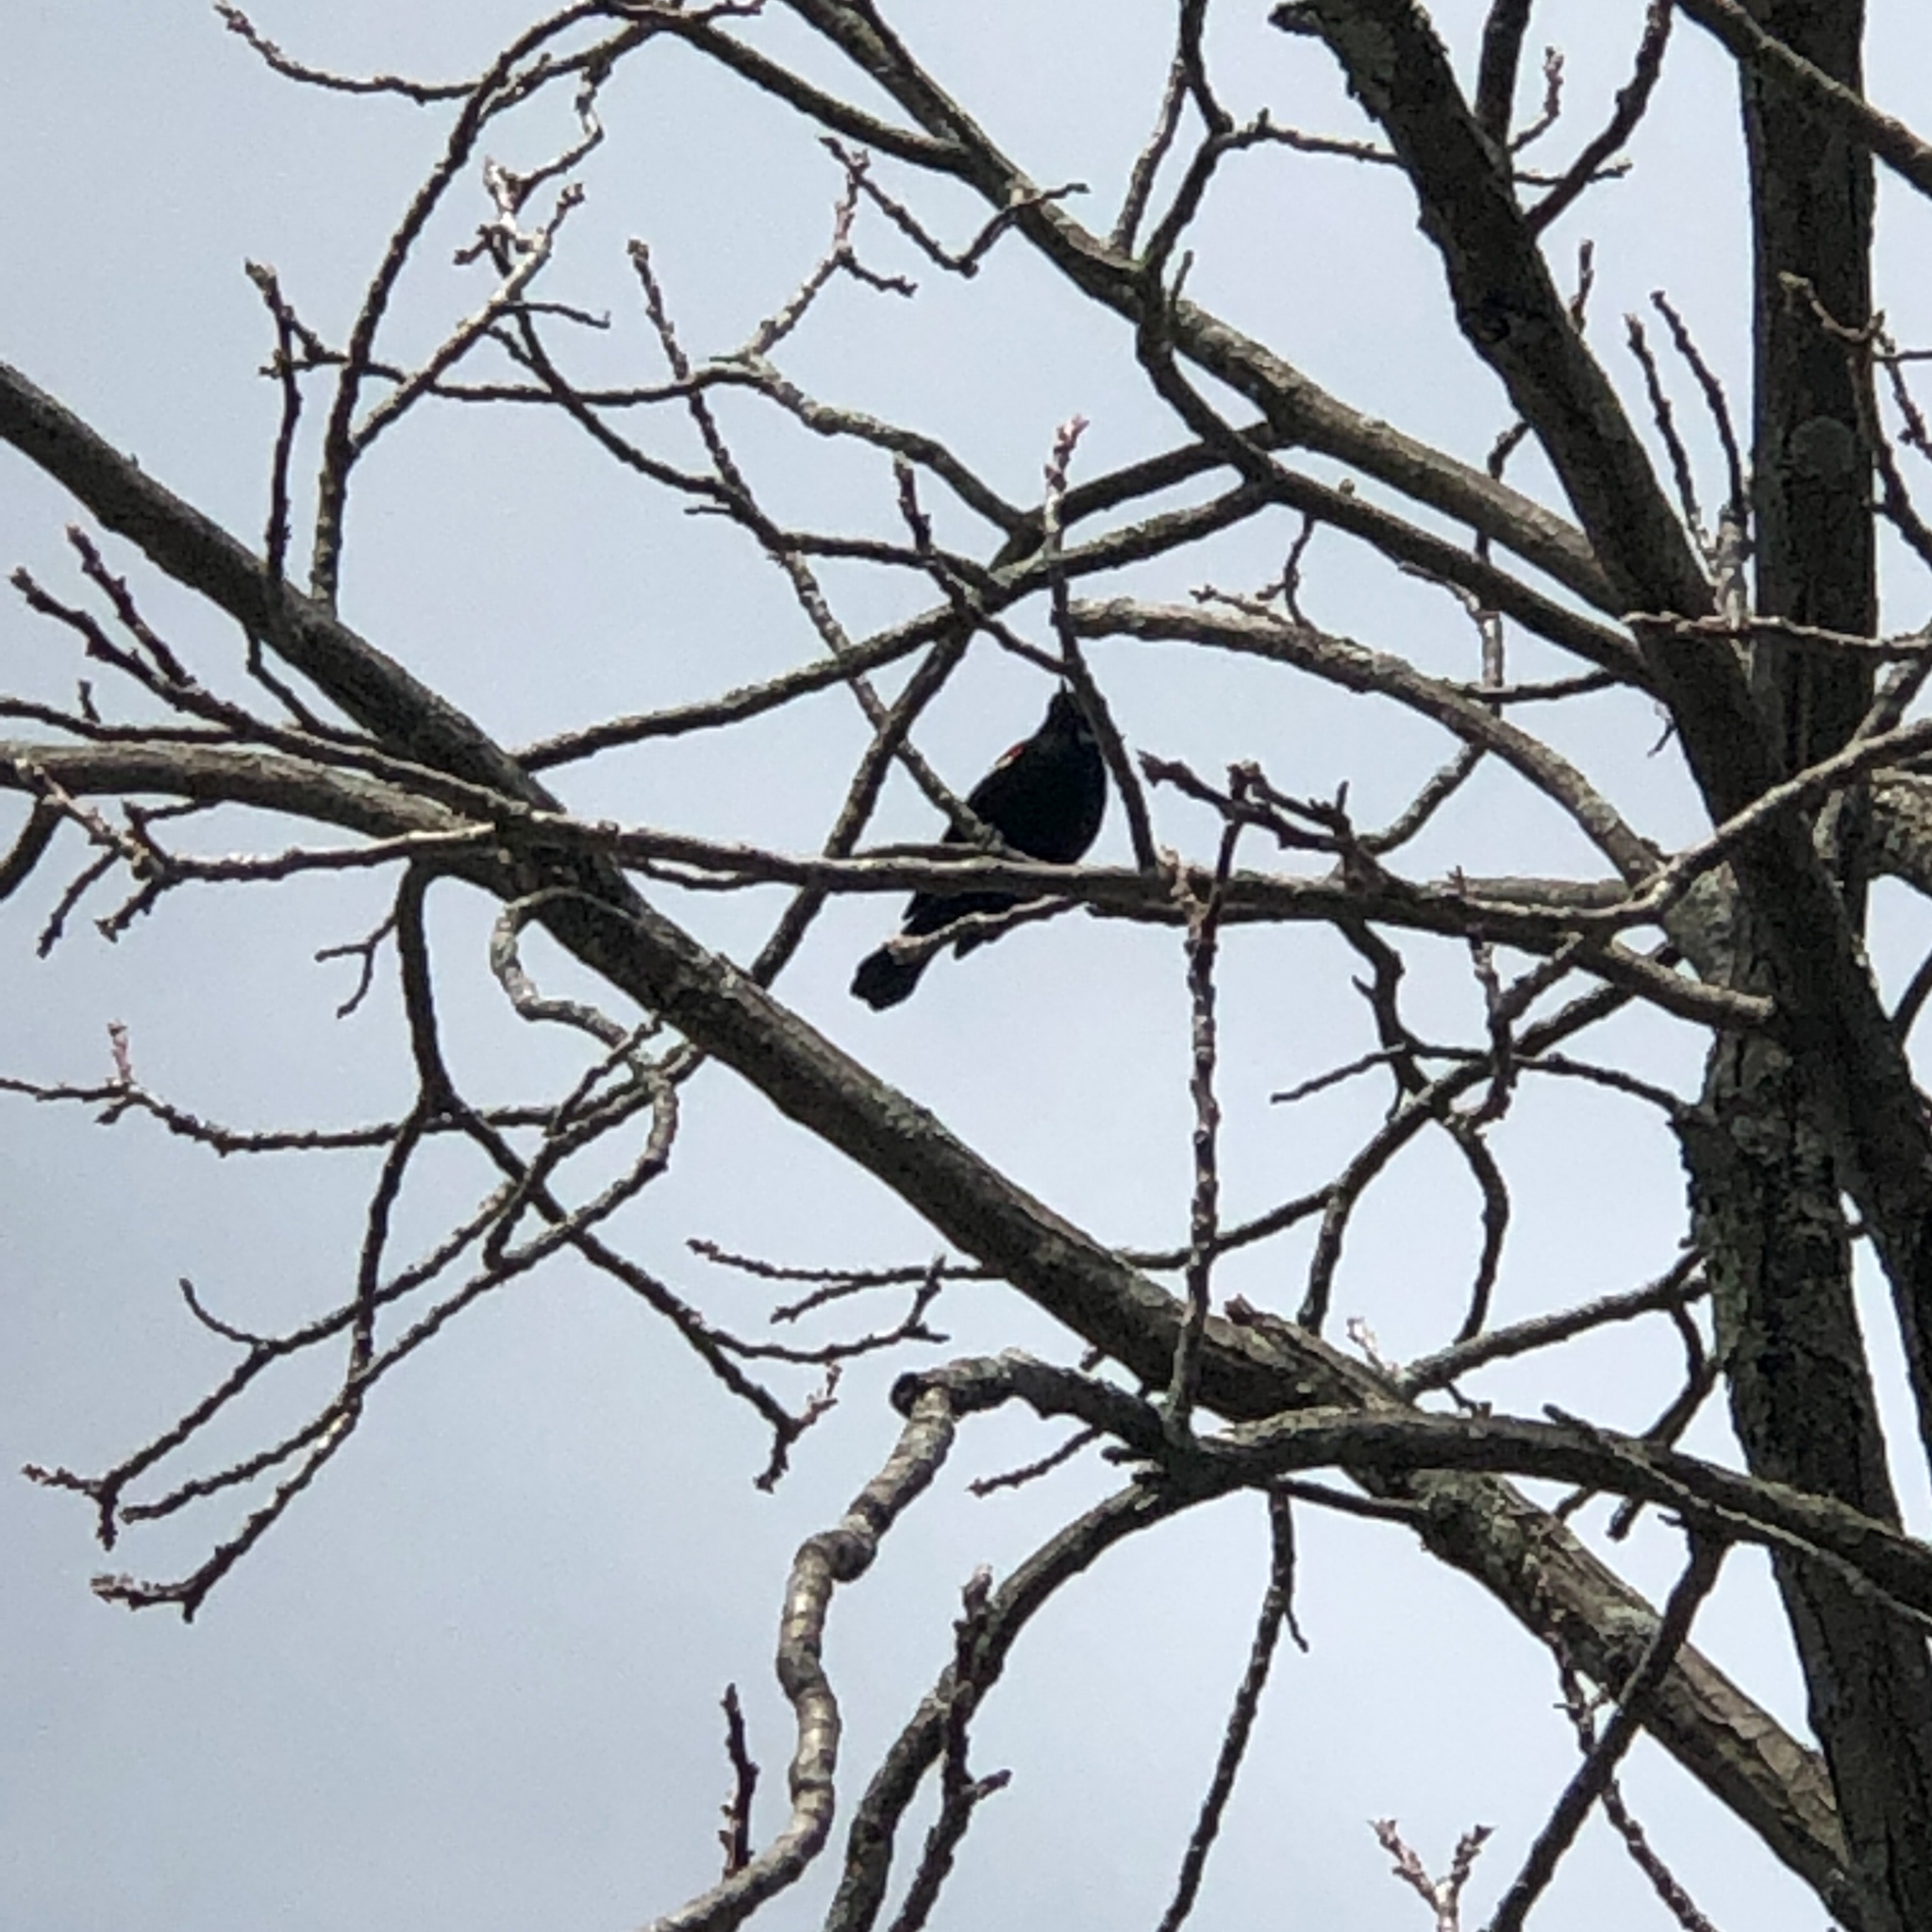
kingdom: Animalia
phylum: Chordata
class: Aves
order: Passeriformes
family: Icteridae
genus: Agelaius
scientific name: Agelaius phoeniceus
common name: Red-winged blackbird
